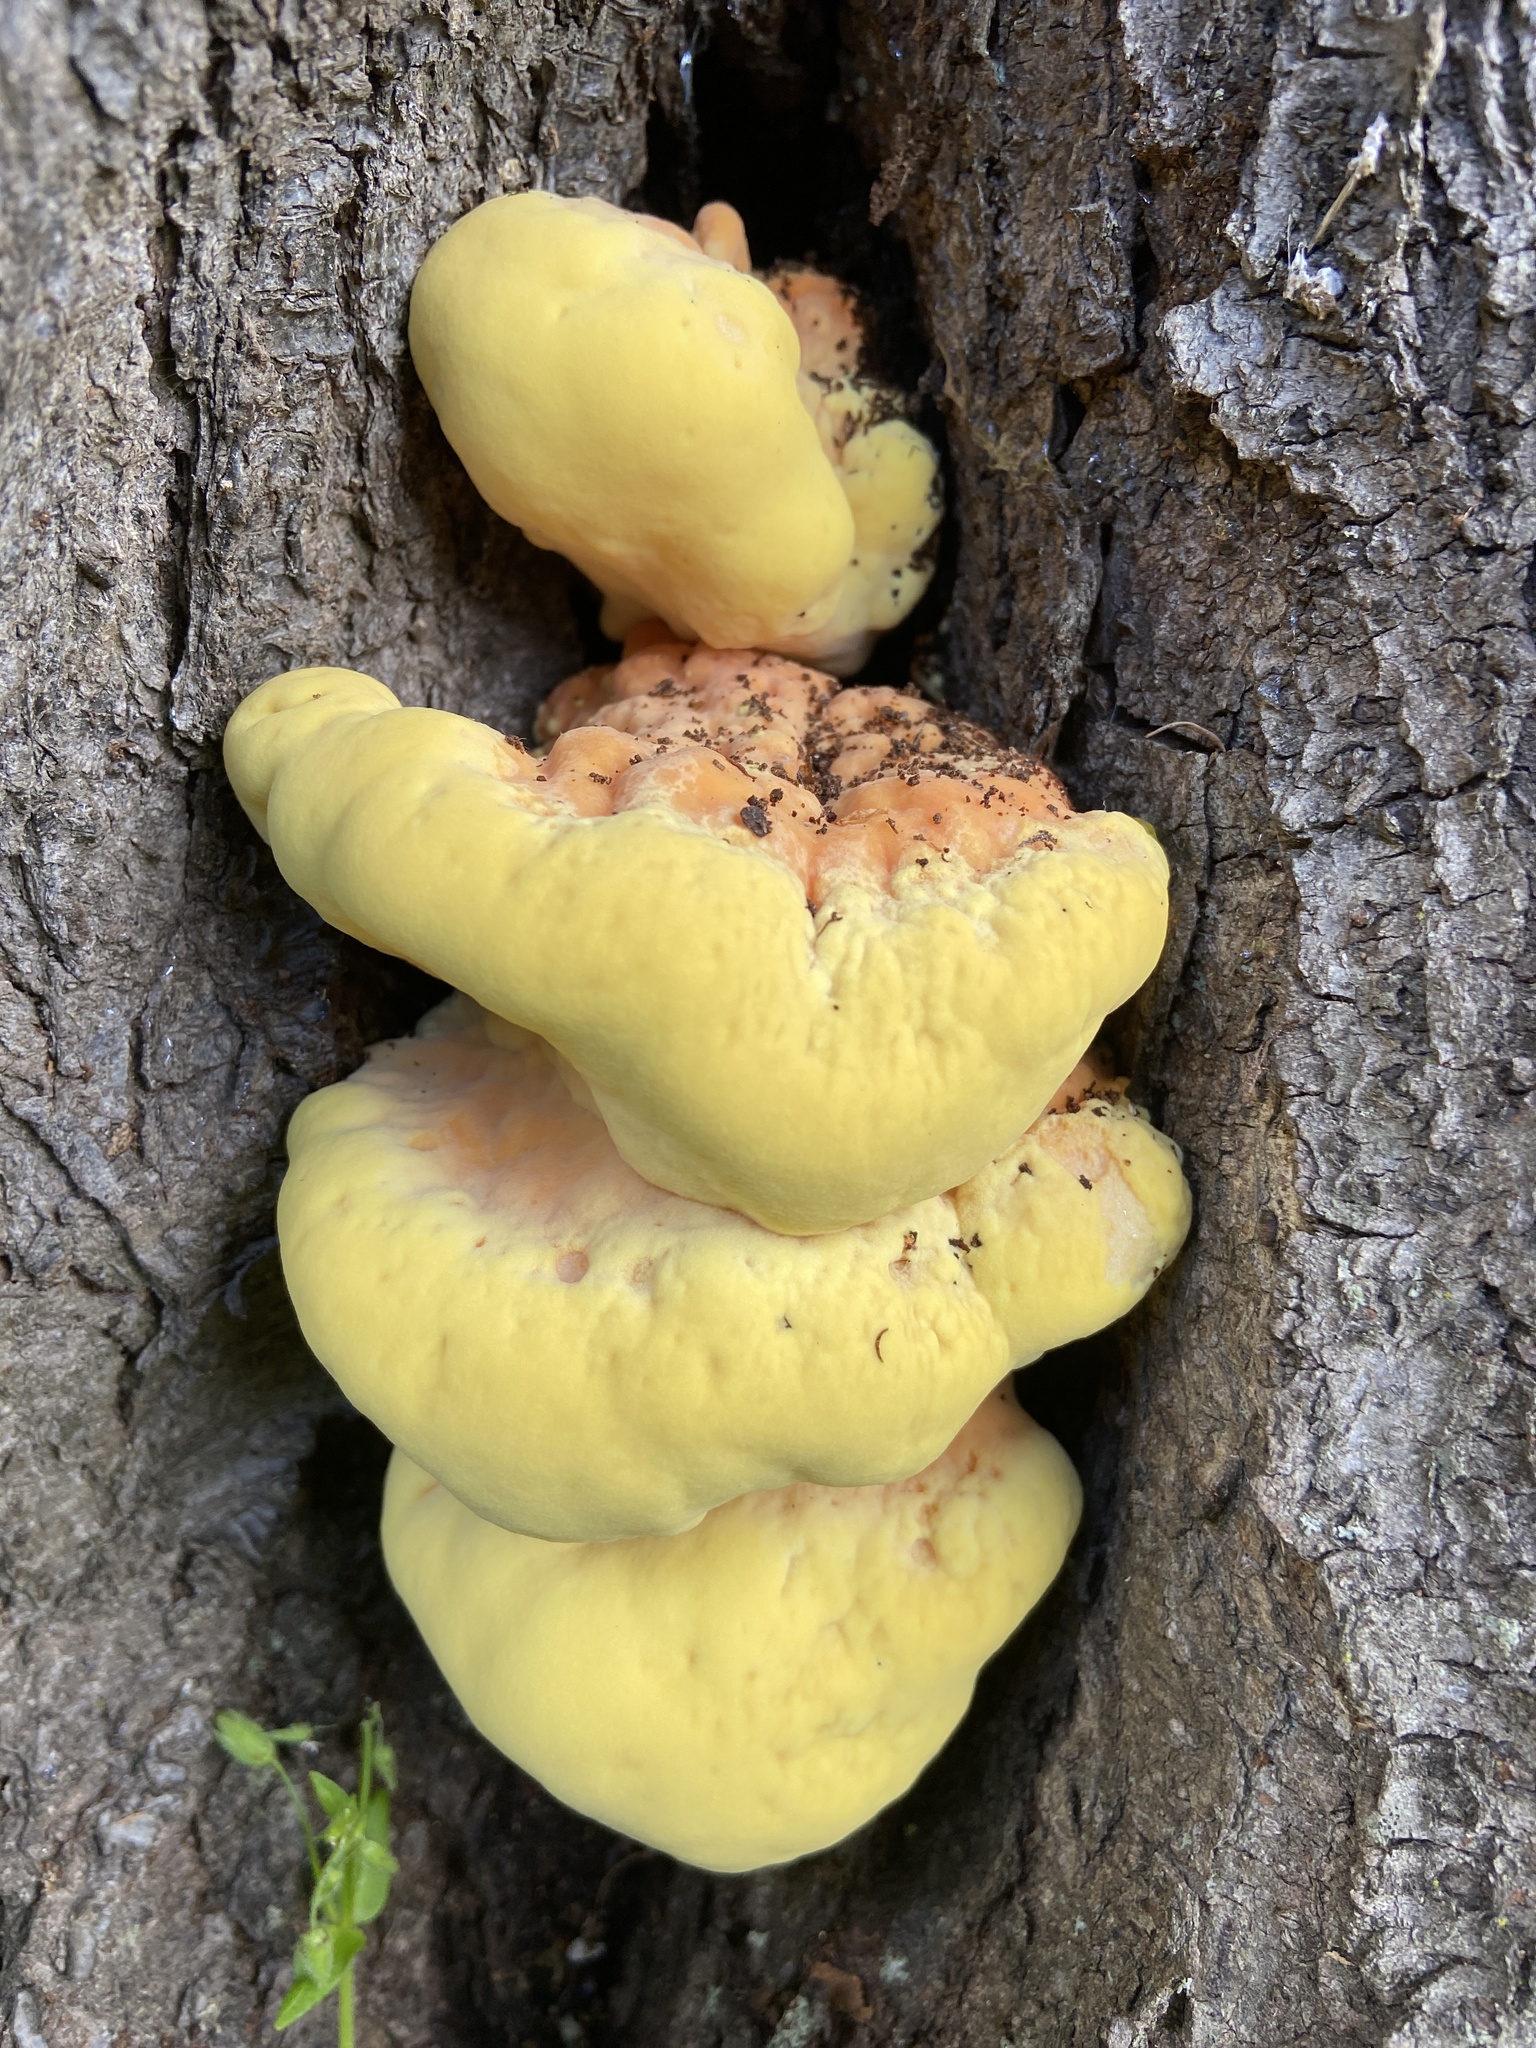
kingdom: Fungi
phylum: Basidiomycota
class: Agaricomycetes
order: Polyporales
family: Laetiporaceae
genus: Laetiporus
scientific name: Laetiporus sulphureus
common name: Chicken of the woods
